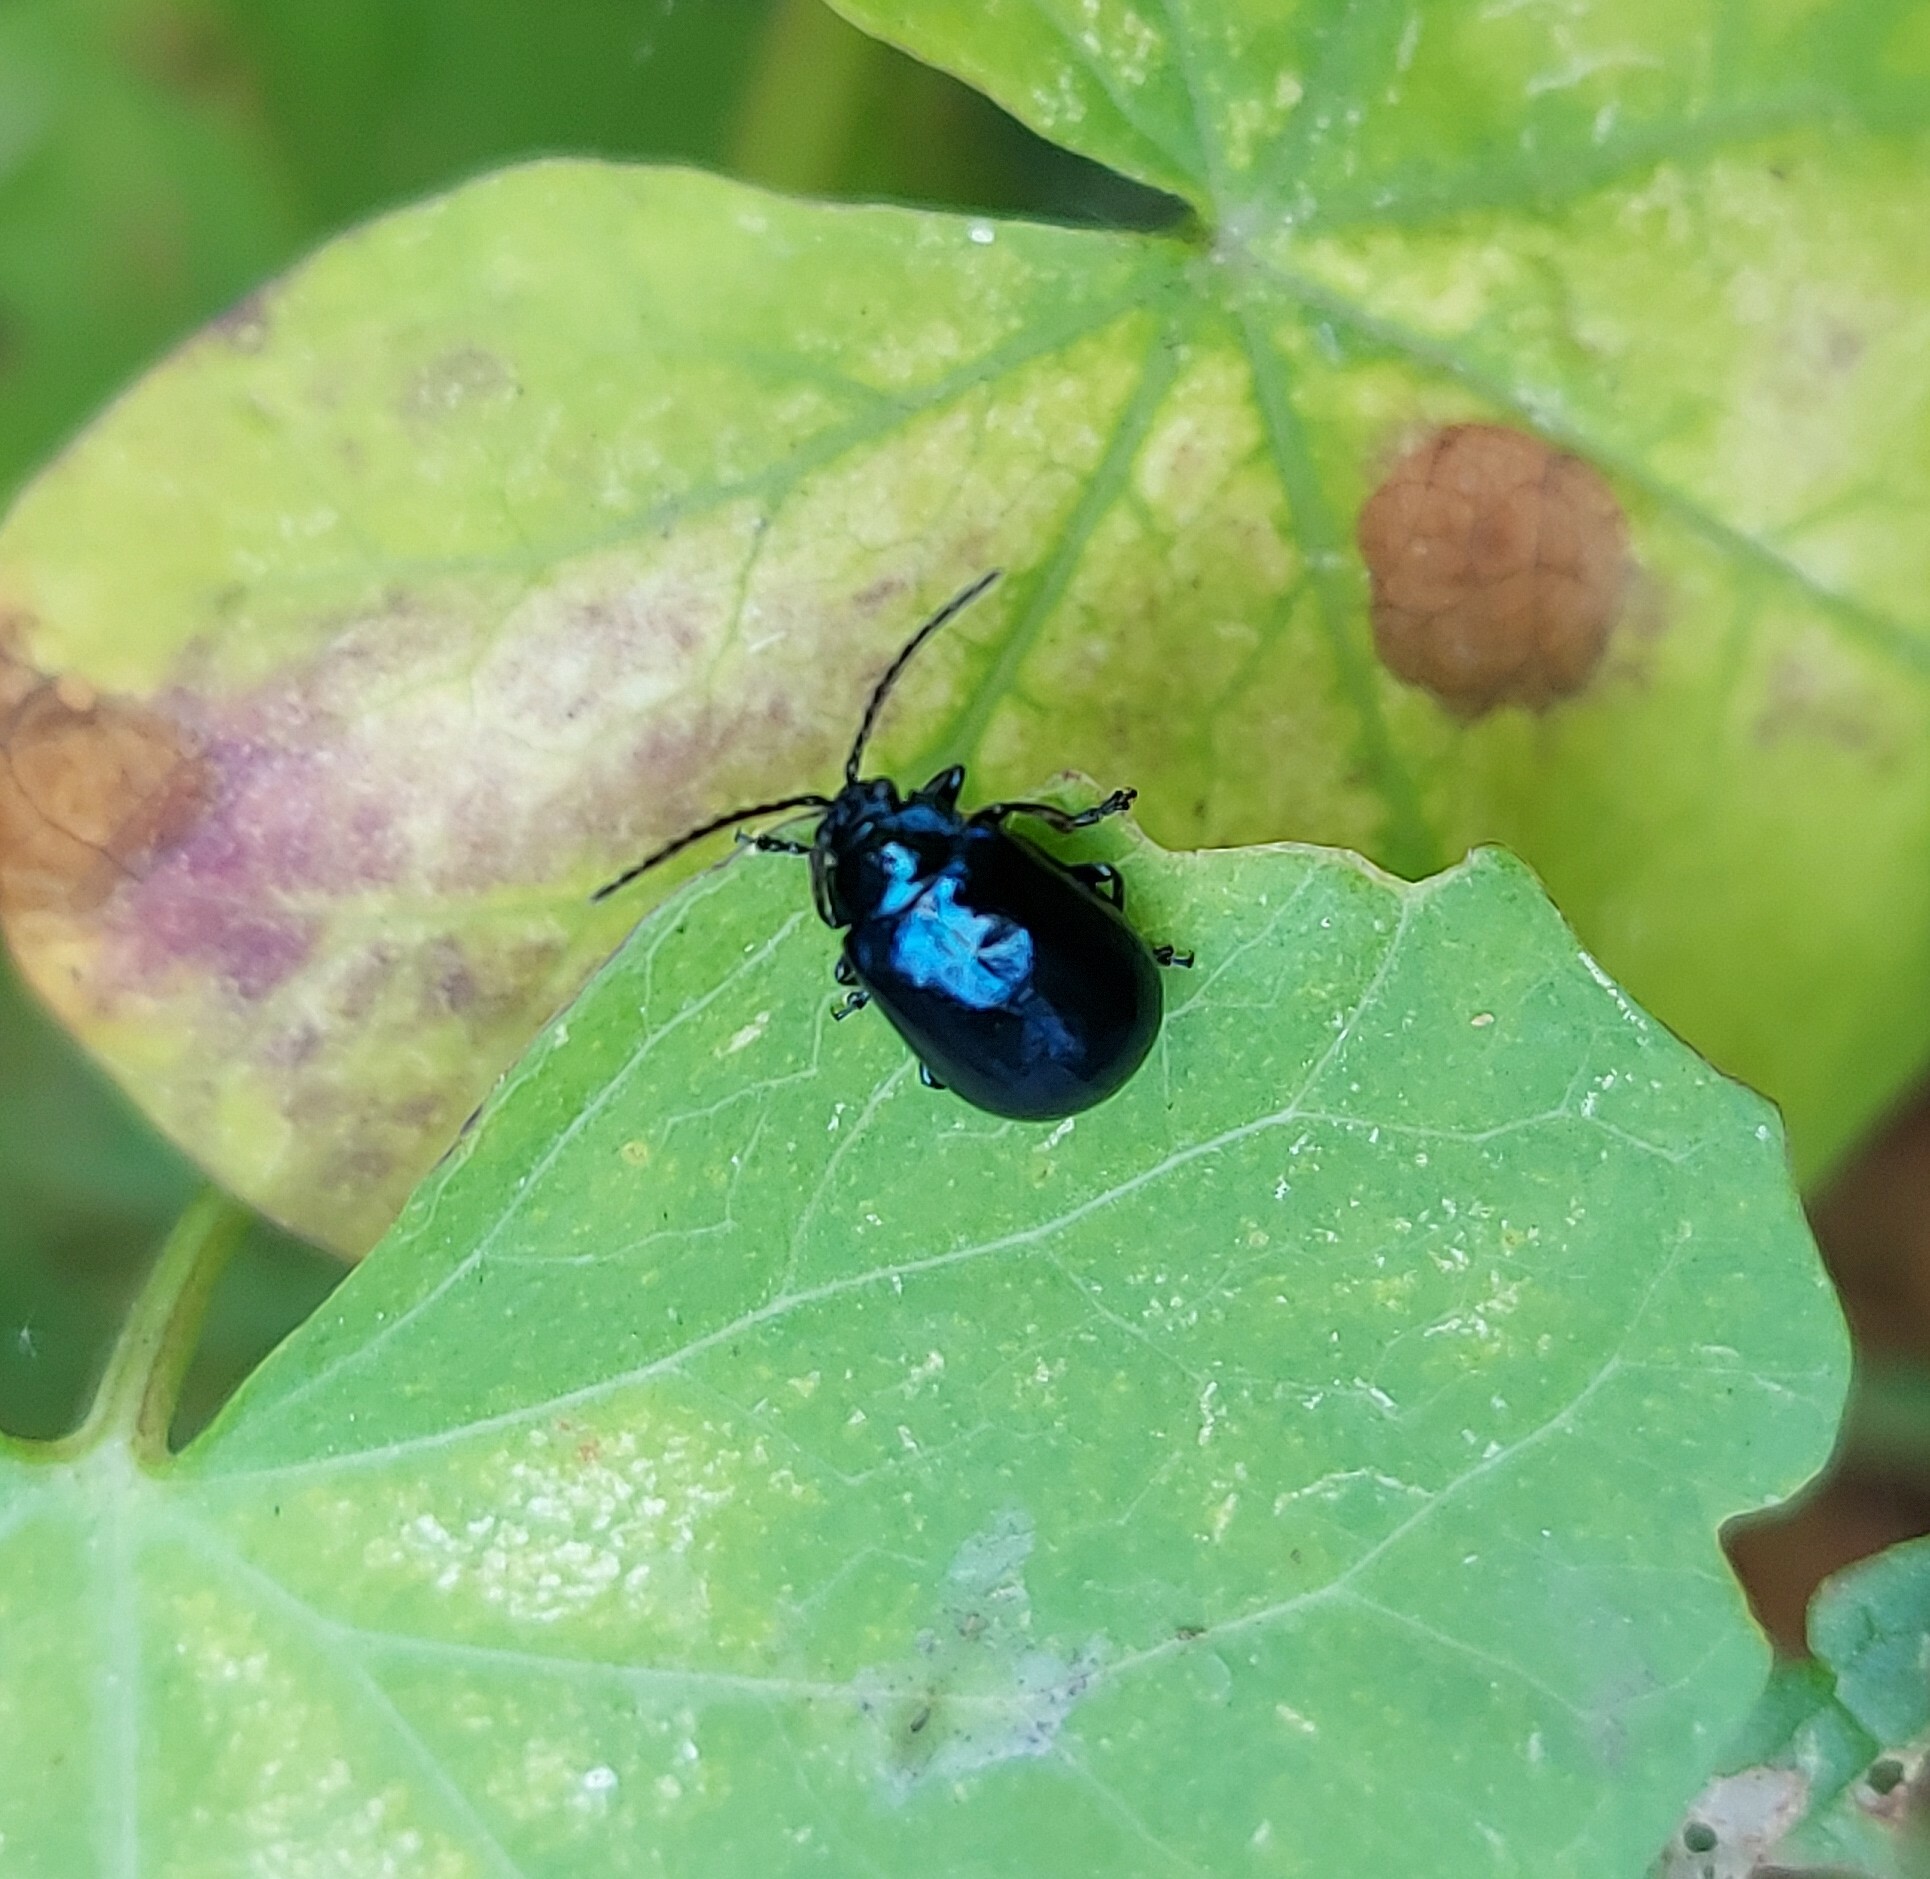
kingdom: Animalia
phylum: Arthropoda
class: Insecta
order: Coleoptera
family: Chrysomelidae
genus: Agelastica
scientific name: Agelastica alni
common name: Alder leaf beetle
